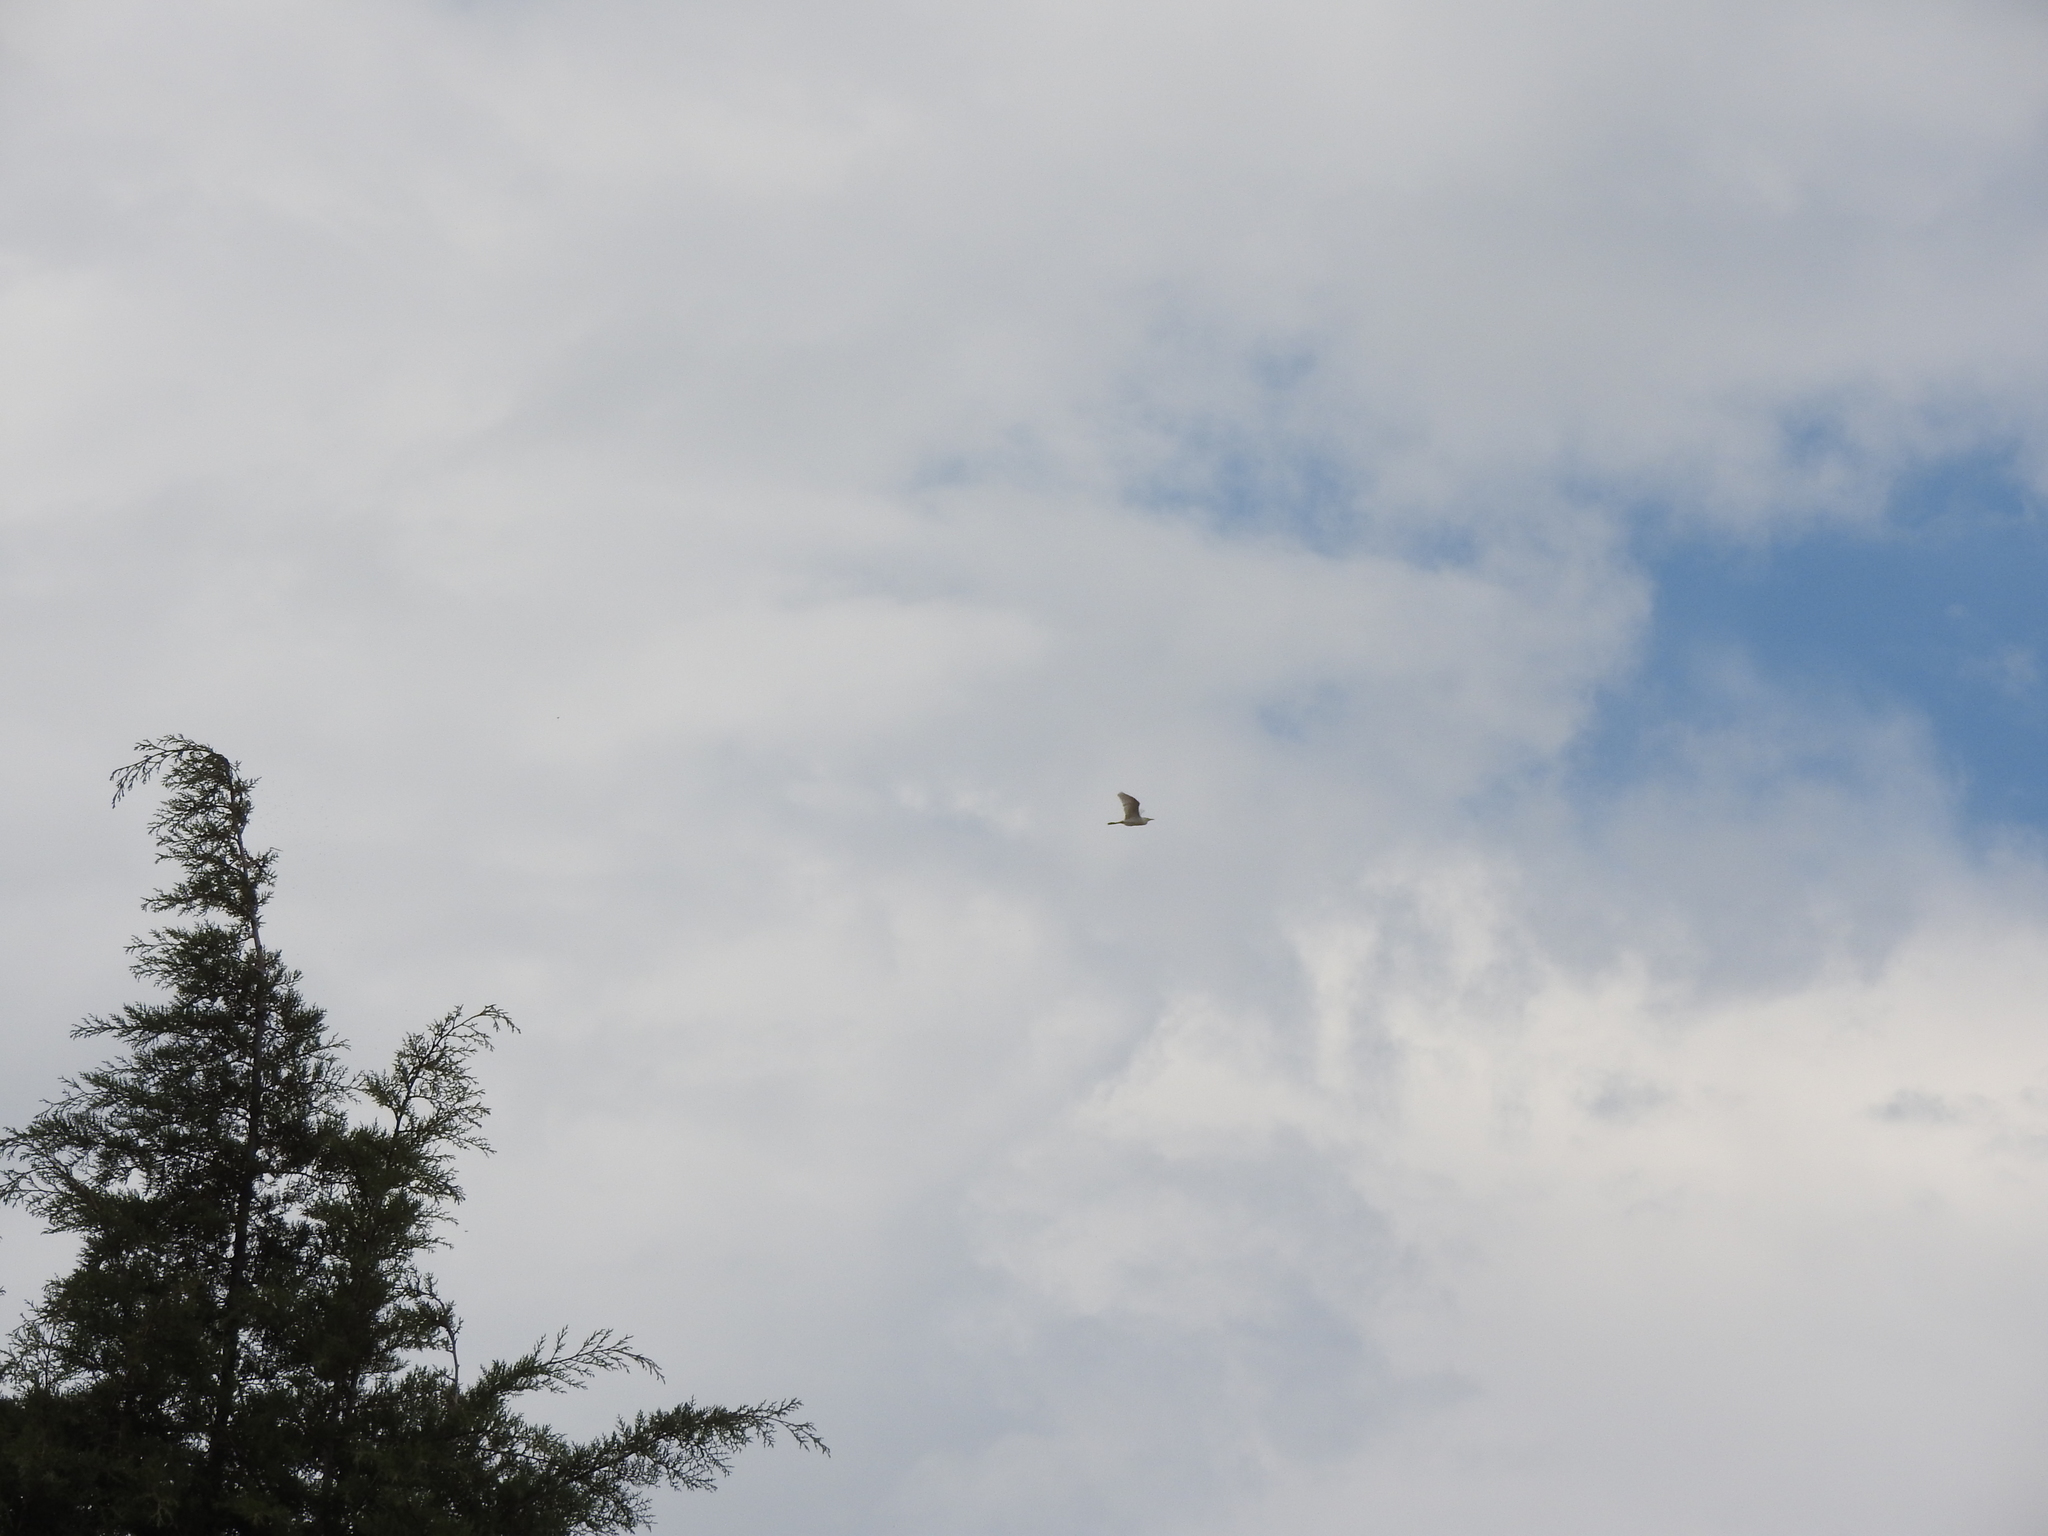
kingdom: Animalia
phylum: Chordata
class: Aves
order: Pelecaniformes
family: Ardeidae
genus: Bubulcus
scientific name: Bubulcus ibis
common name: Cattle egret
